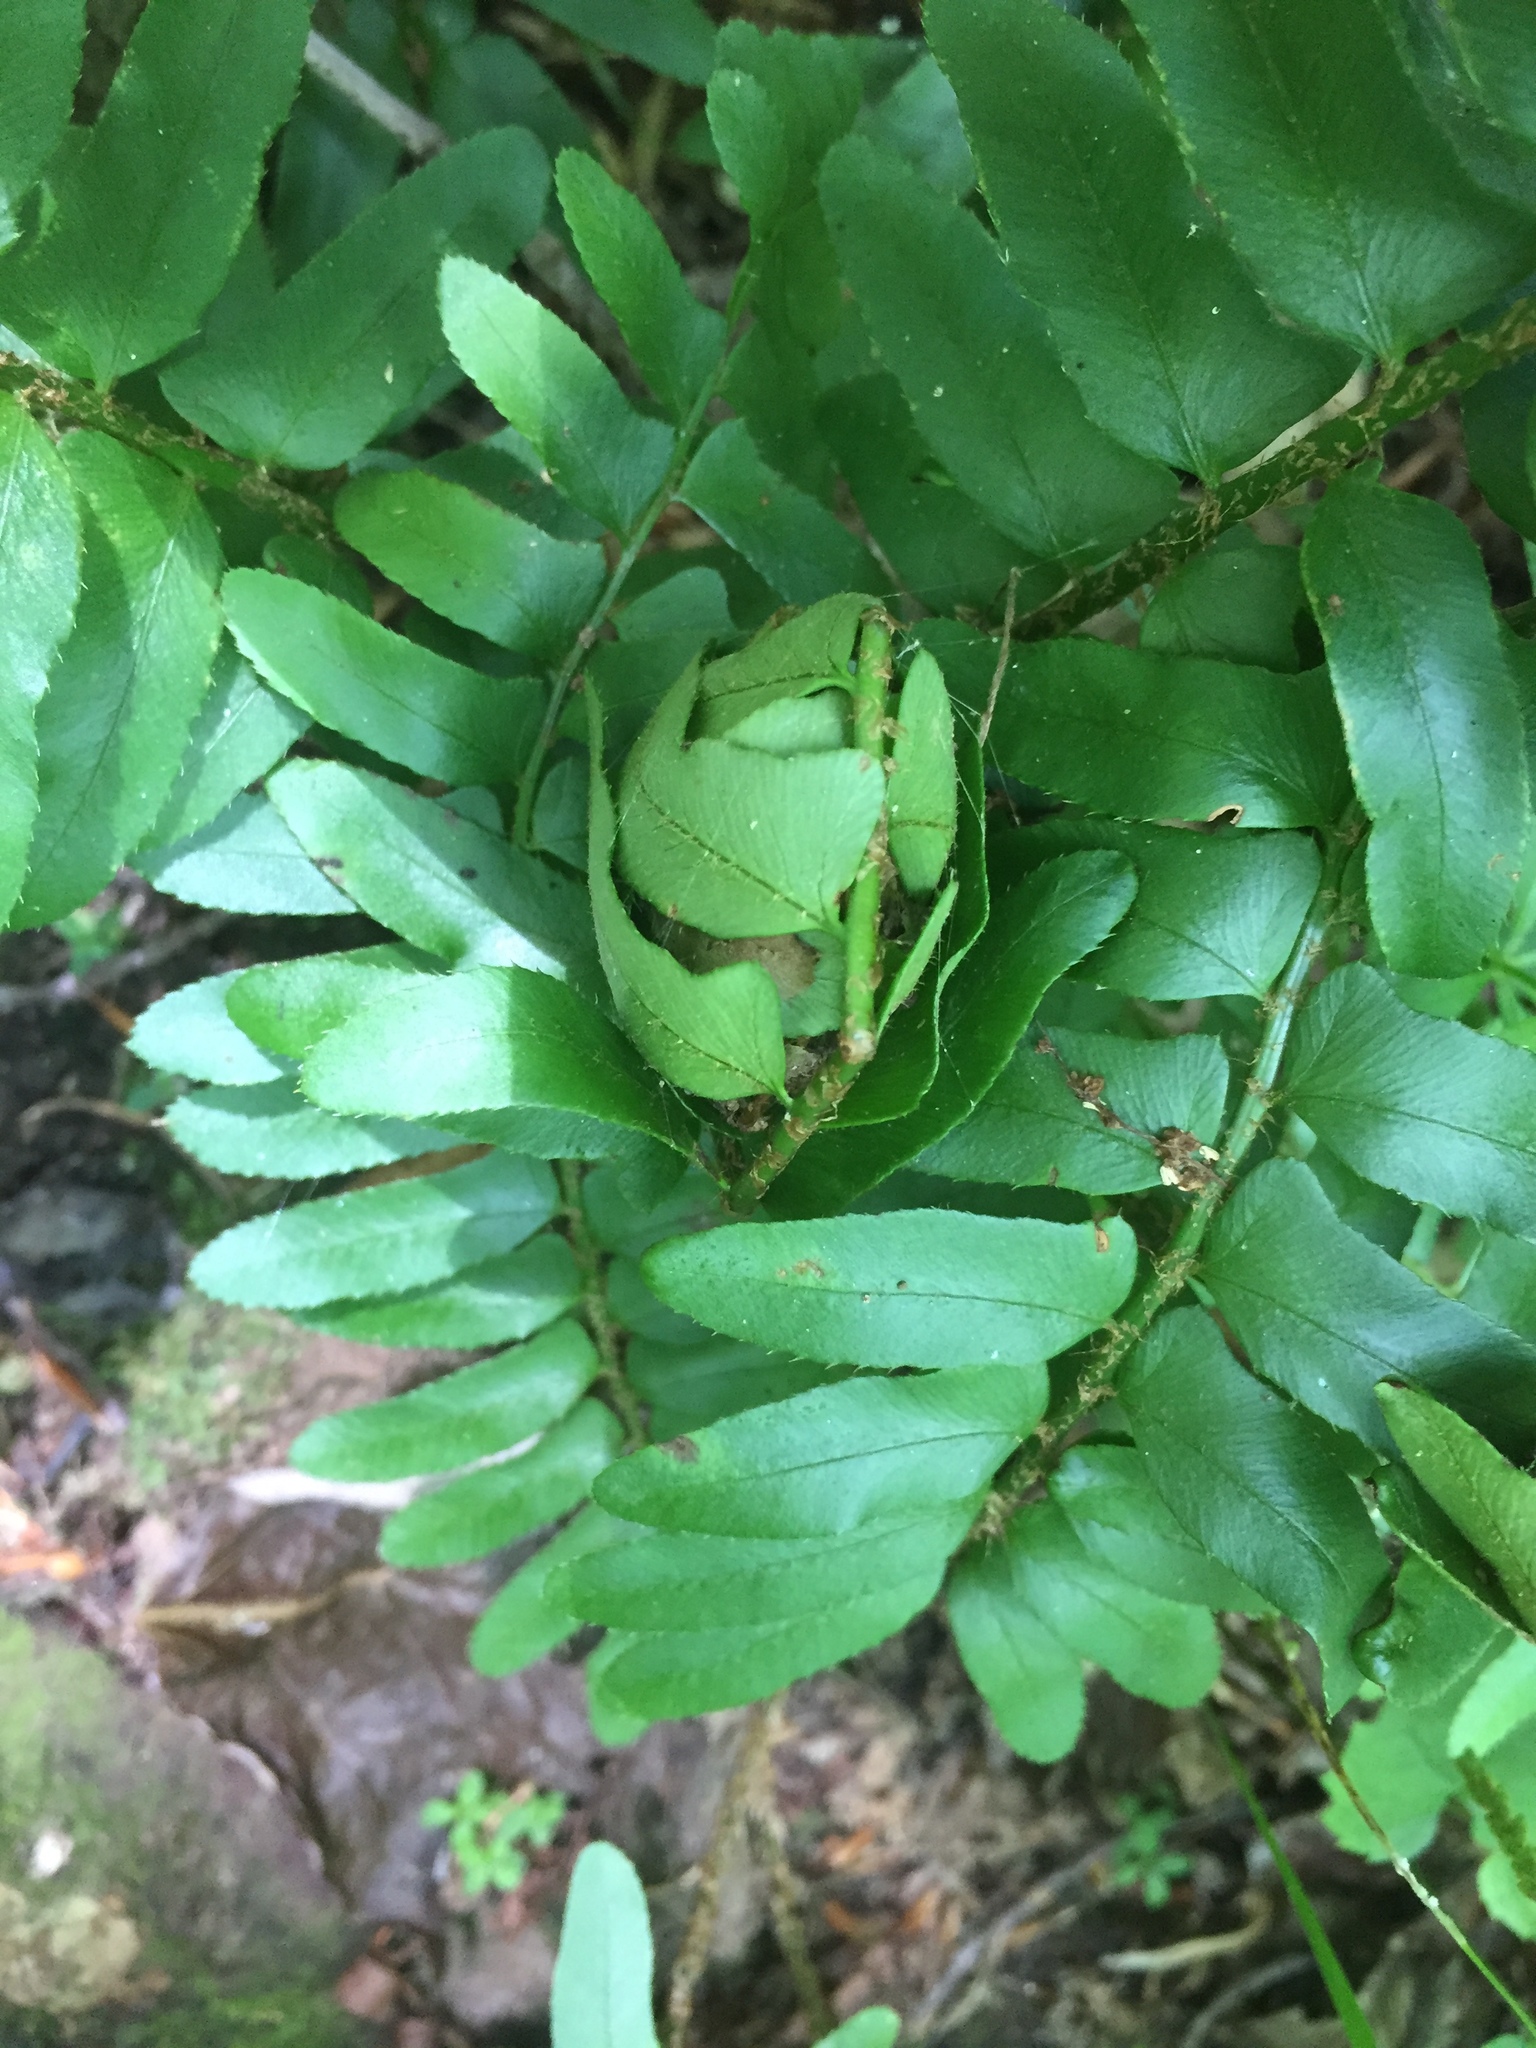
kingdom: Plantae
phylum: Tracheophyta
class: Polypodiopsida
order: Polypodiales
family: Dryopteridaceae
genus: Polystichum
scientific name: Polystichum acrostichoides
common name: Christmas fern
